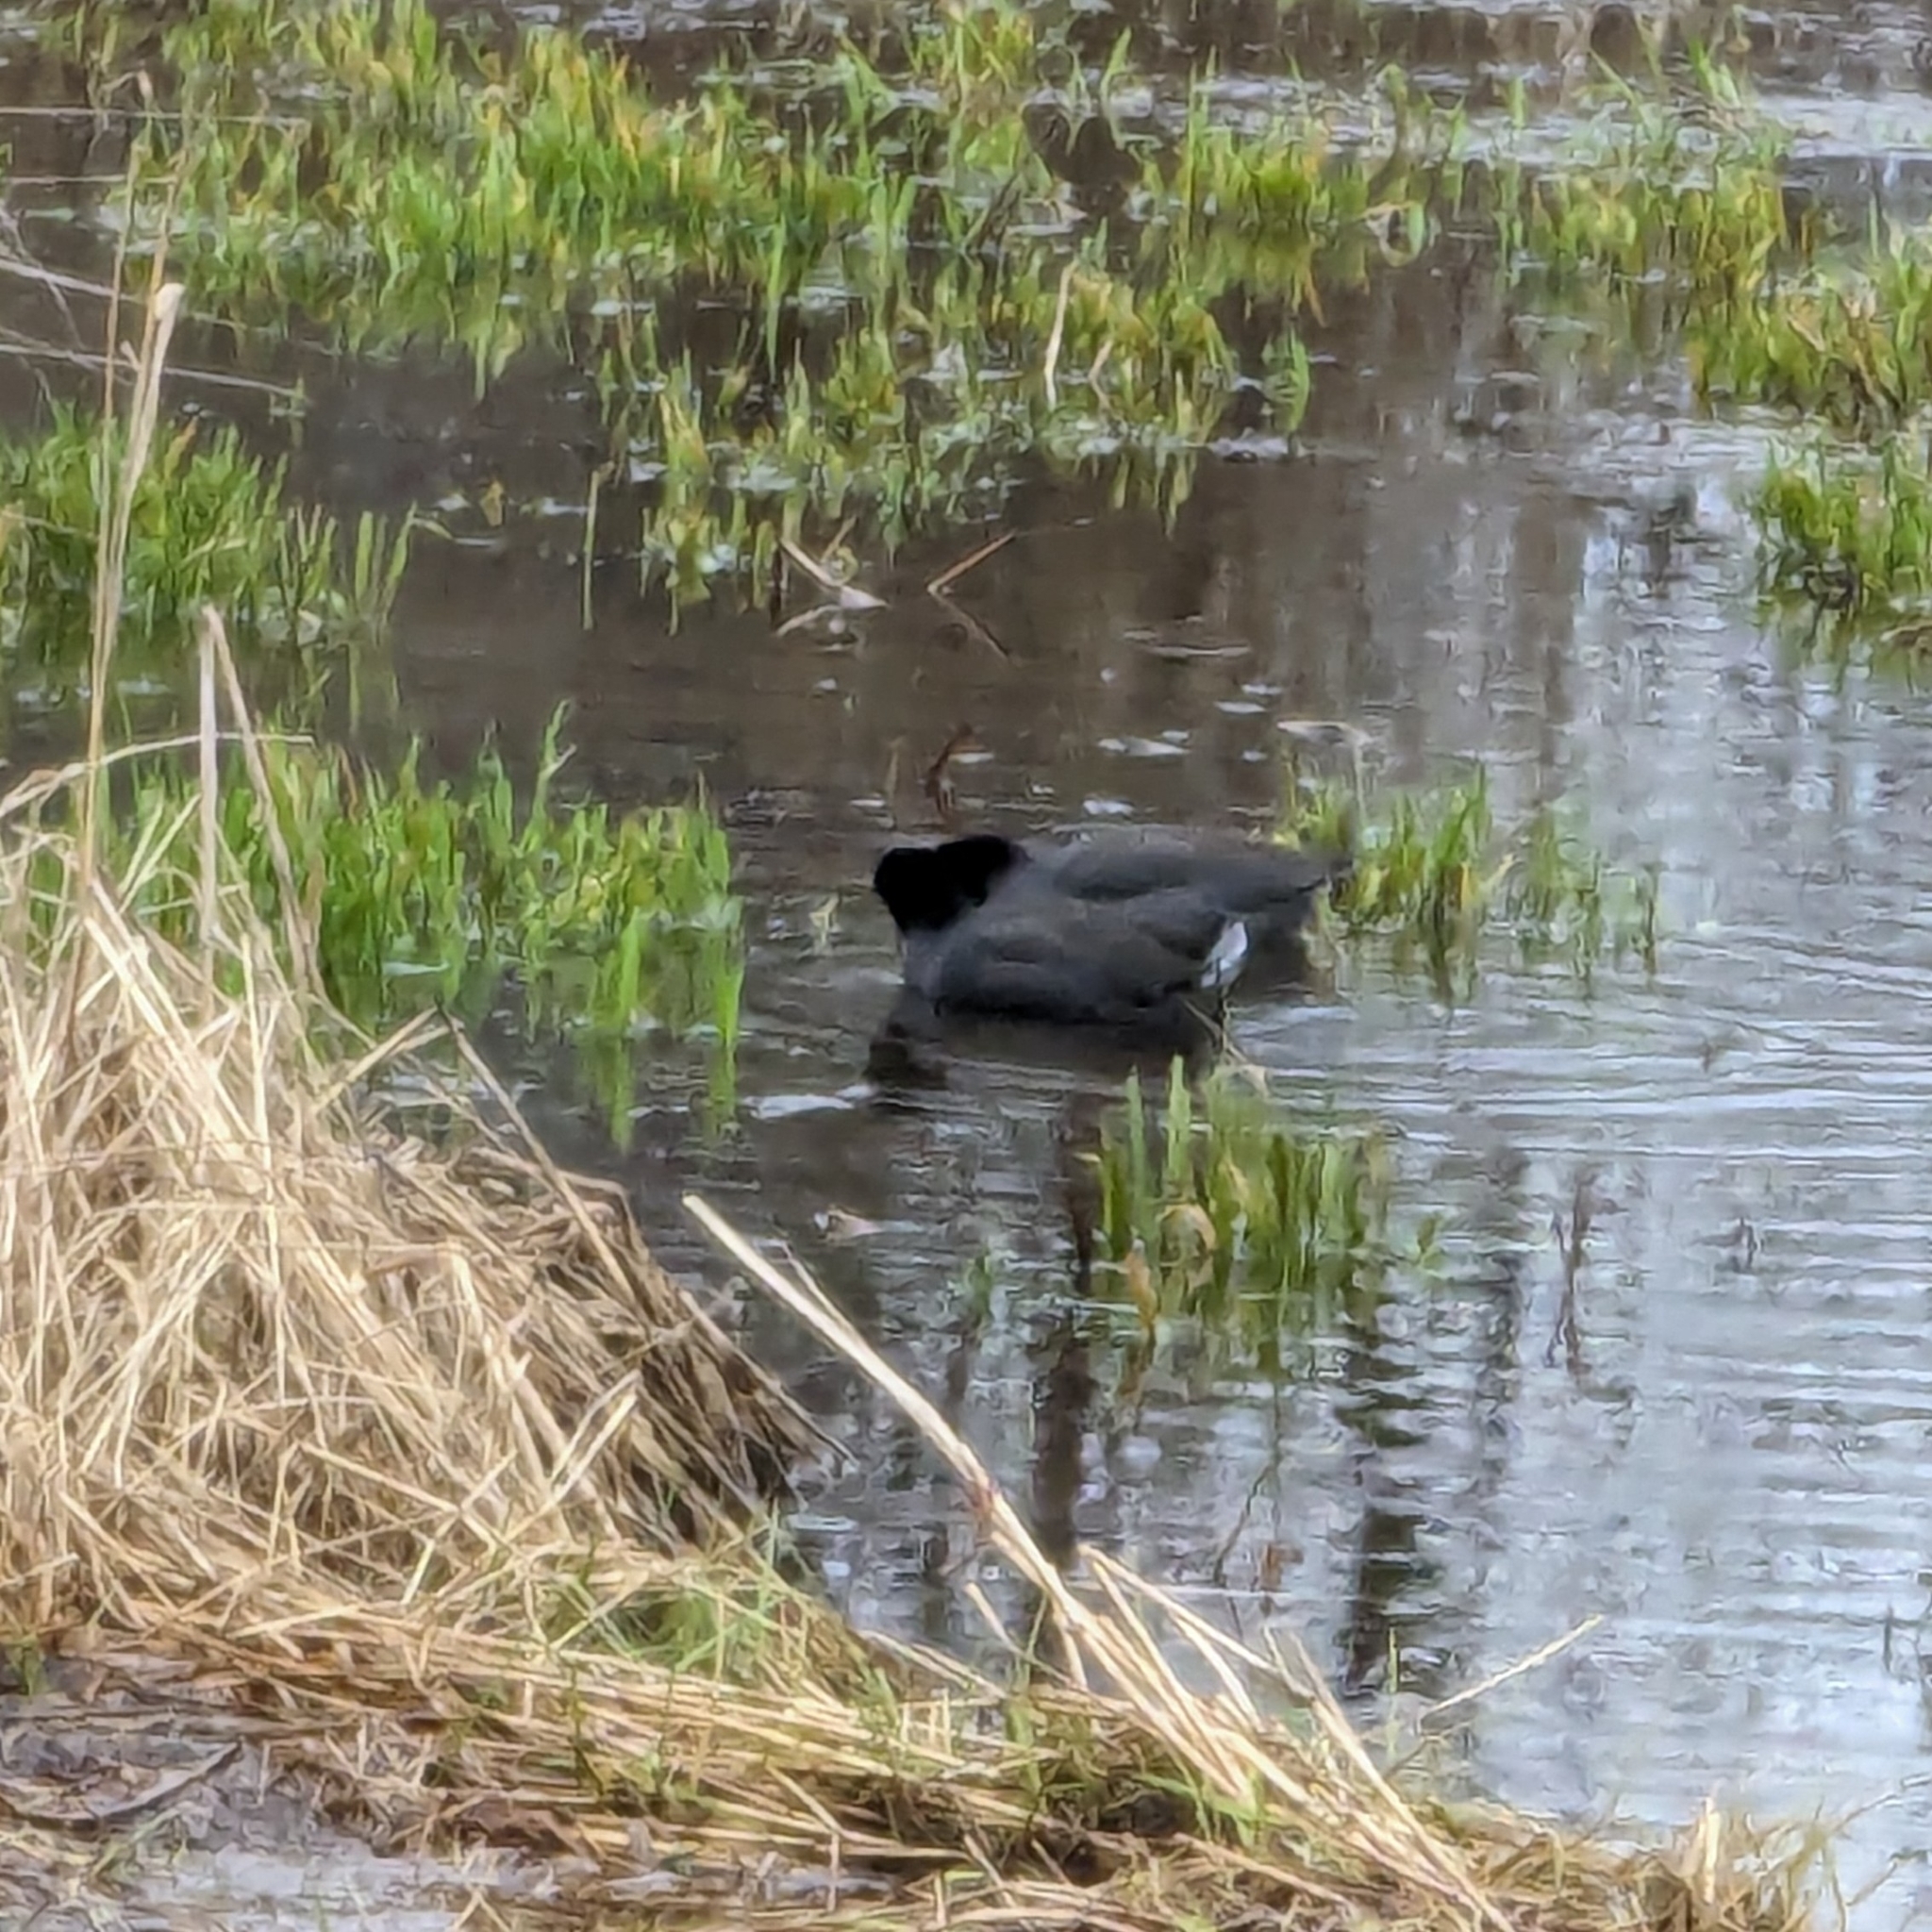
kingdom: Animalia
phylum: Chordata
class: Aves
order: Gruiformes
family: Rallidae
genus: Fulica
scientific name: Fulica americana
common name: American coot
